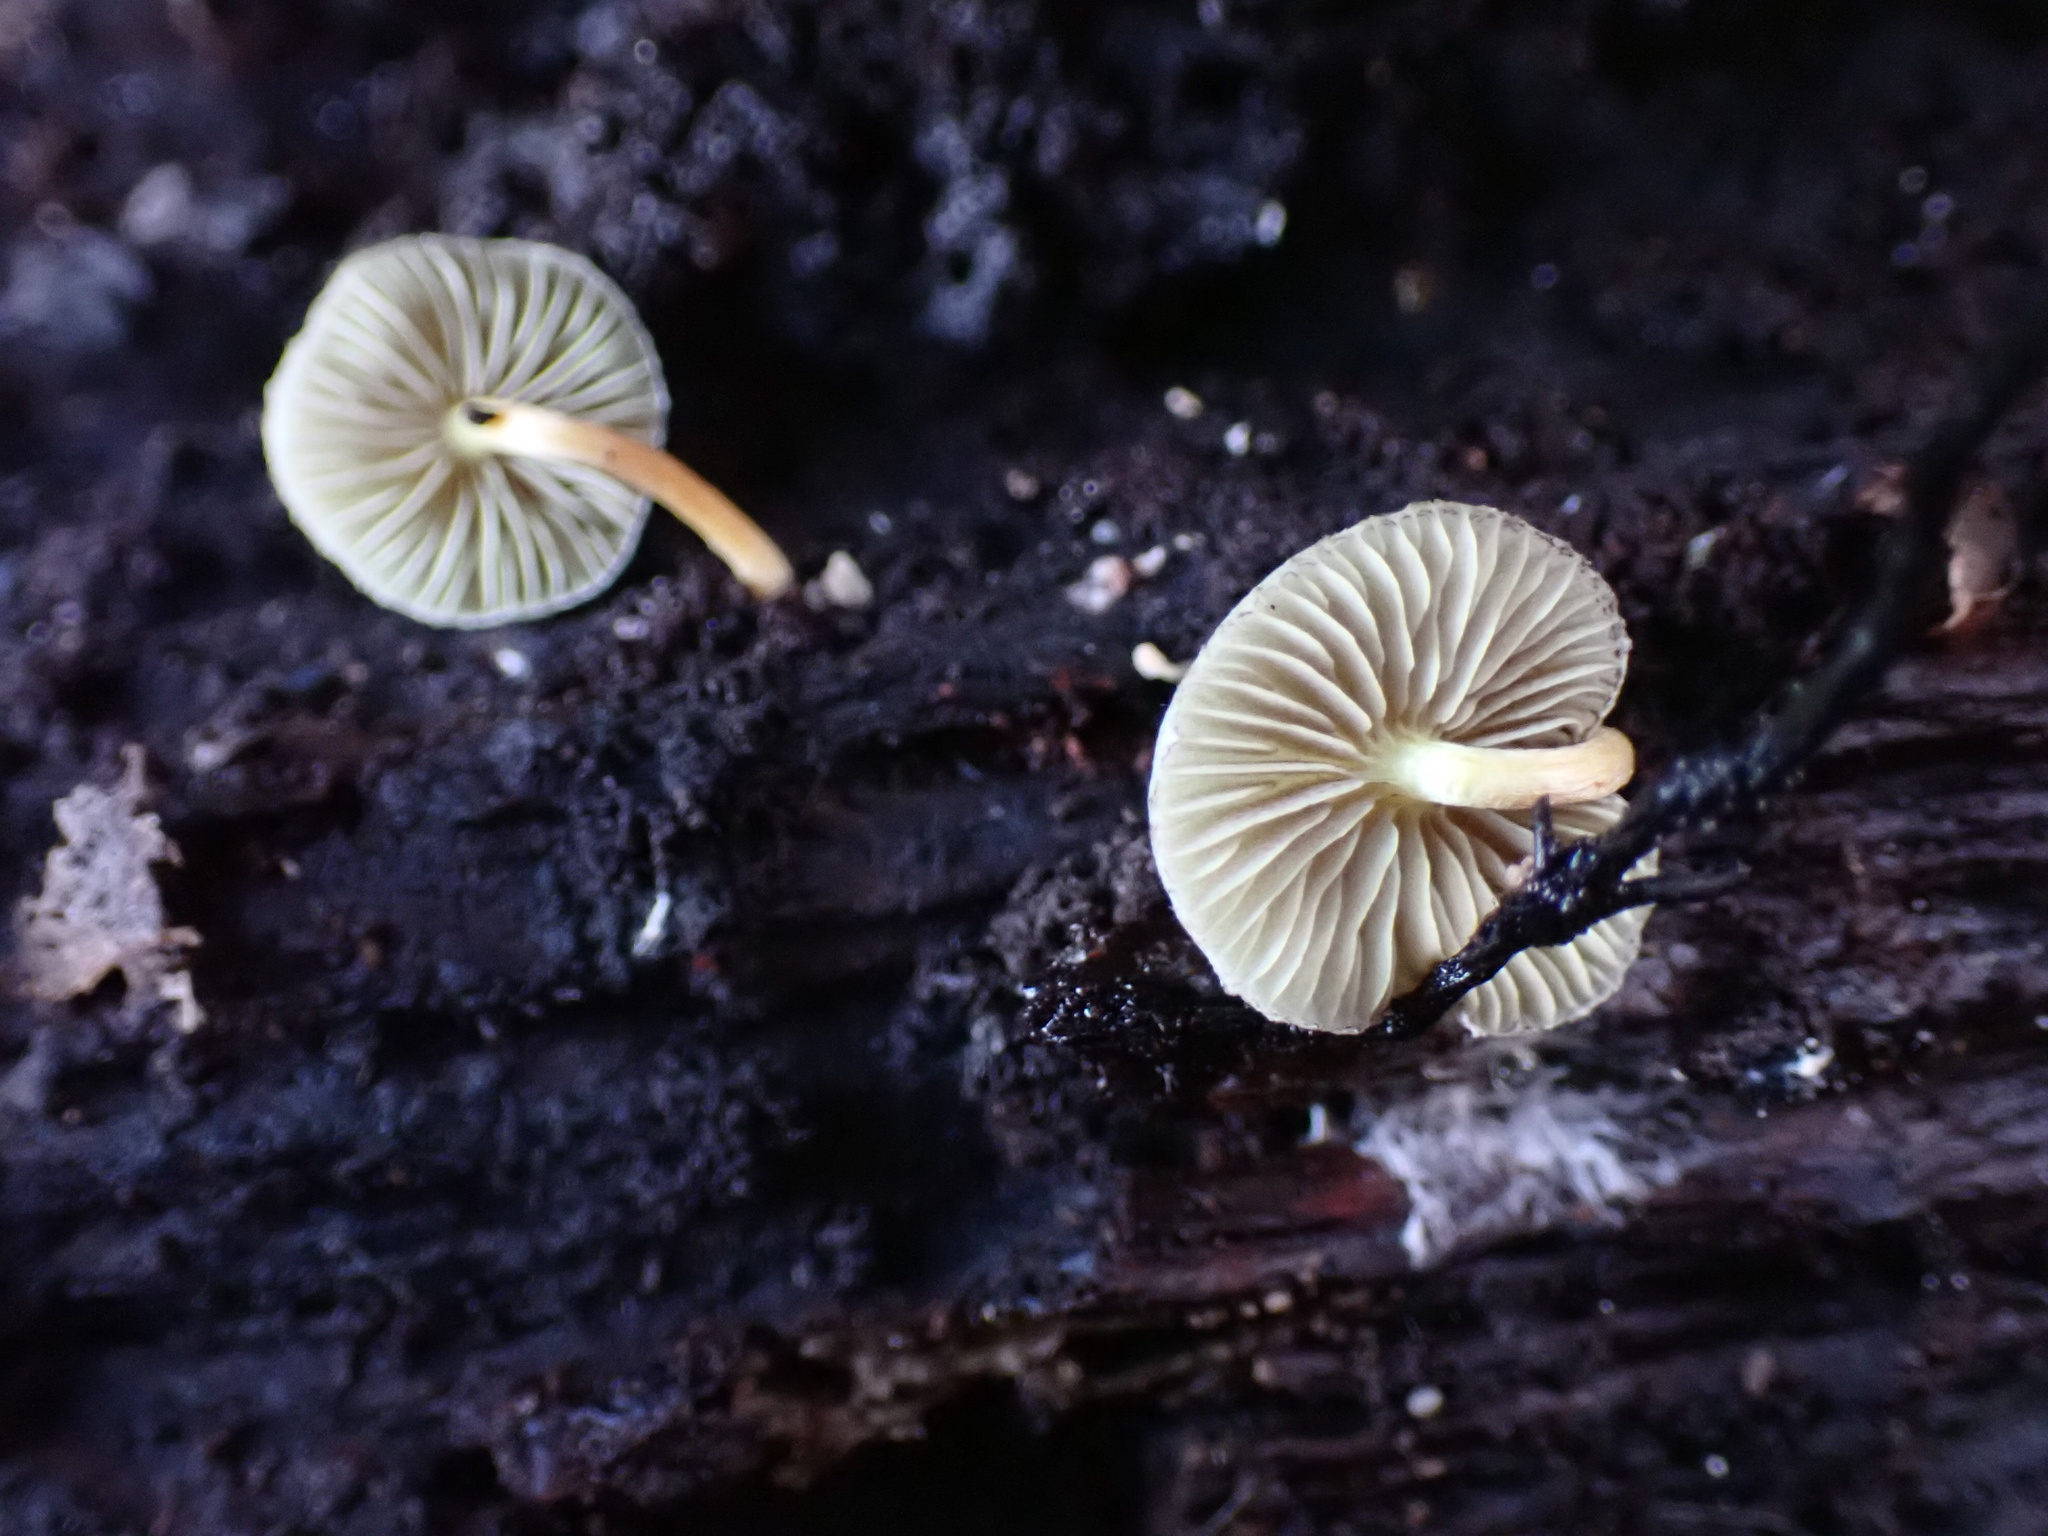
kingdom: Fungi
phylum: Basidiomycota
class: Agaricomycetes
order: Agaricales
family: Strophariaceae
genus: Hypholoma
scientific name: Hypholoma fasciculare
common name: Sulphur tuft
